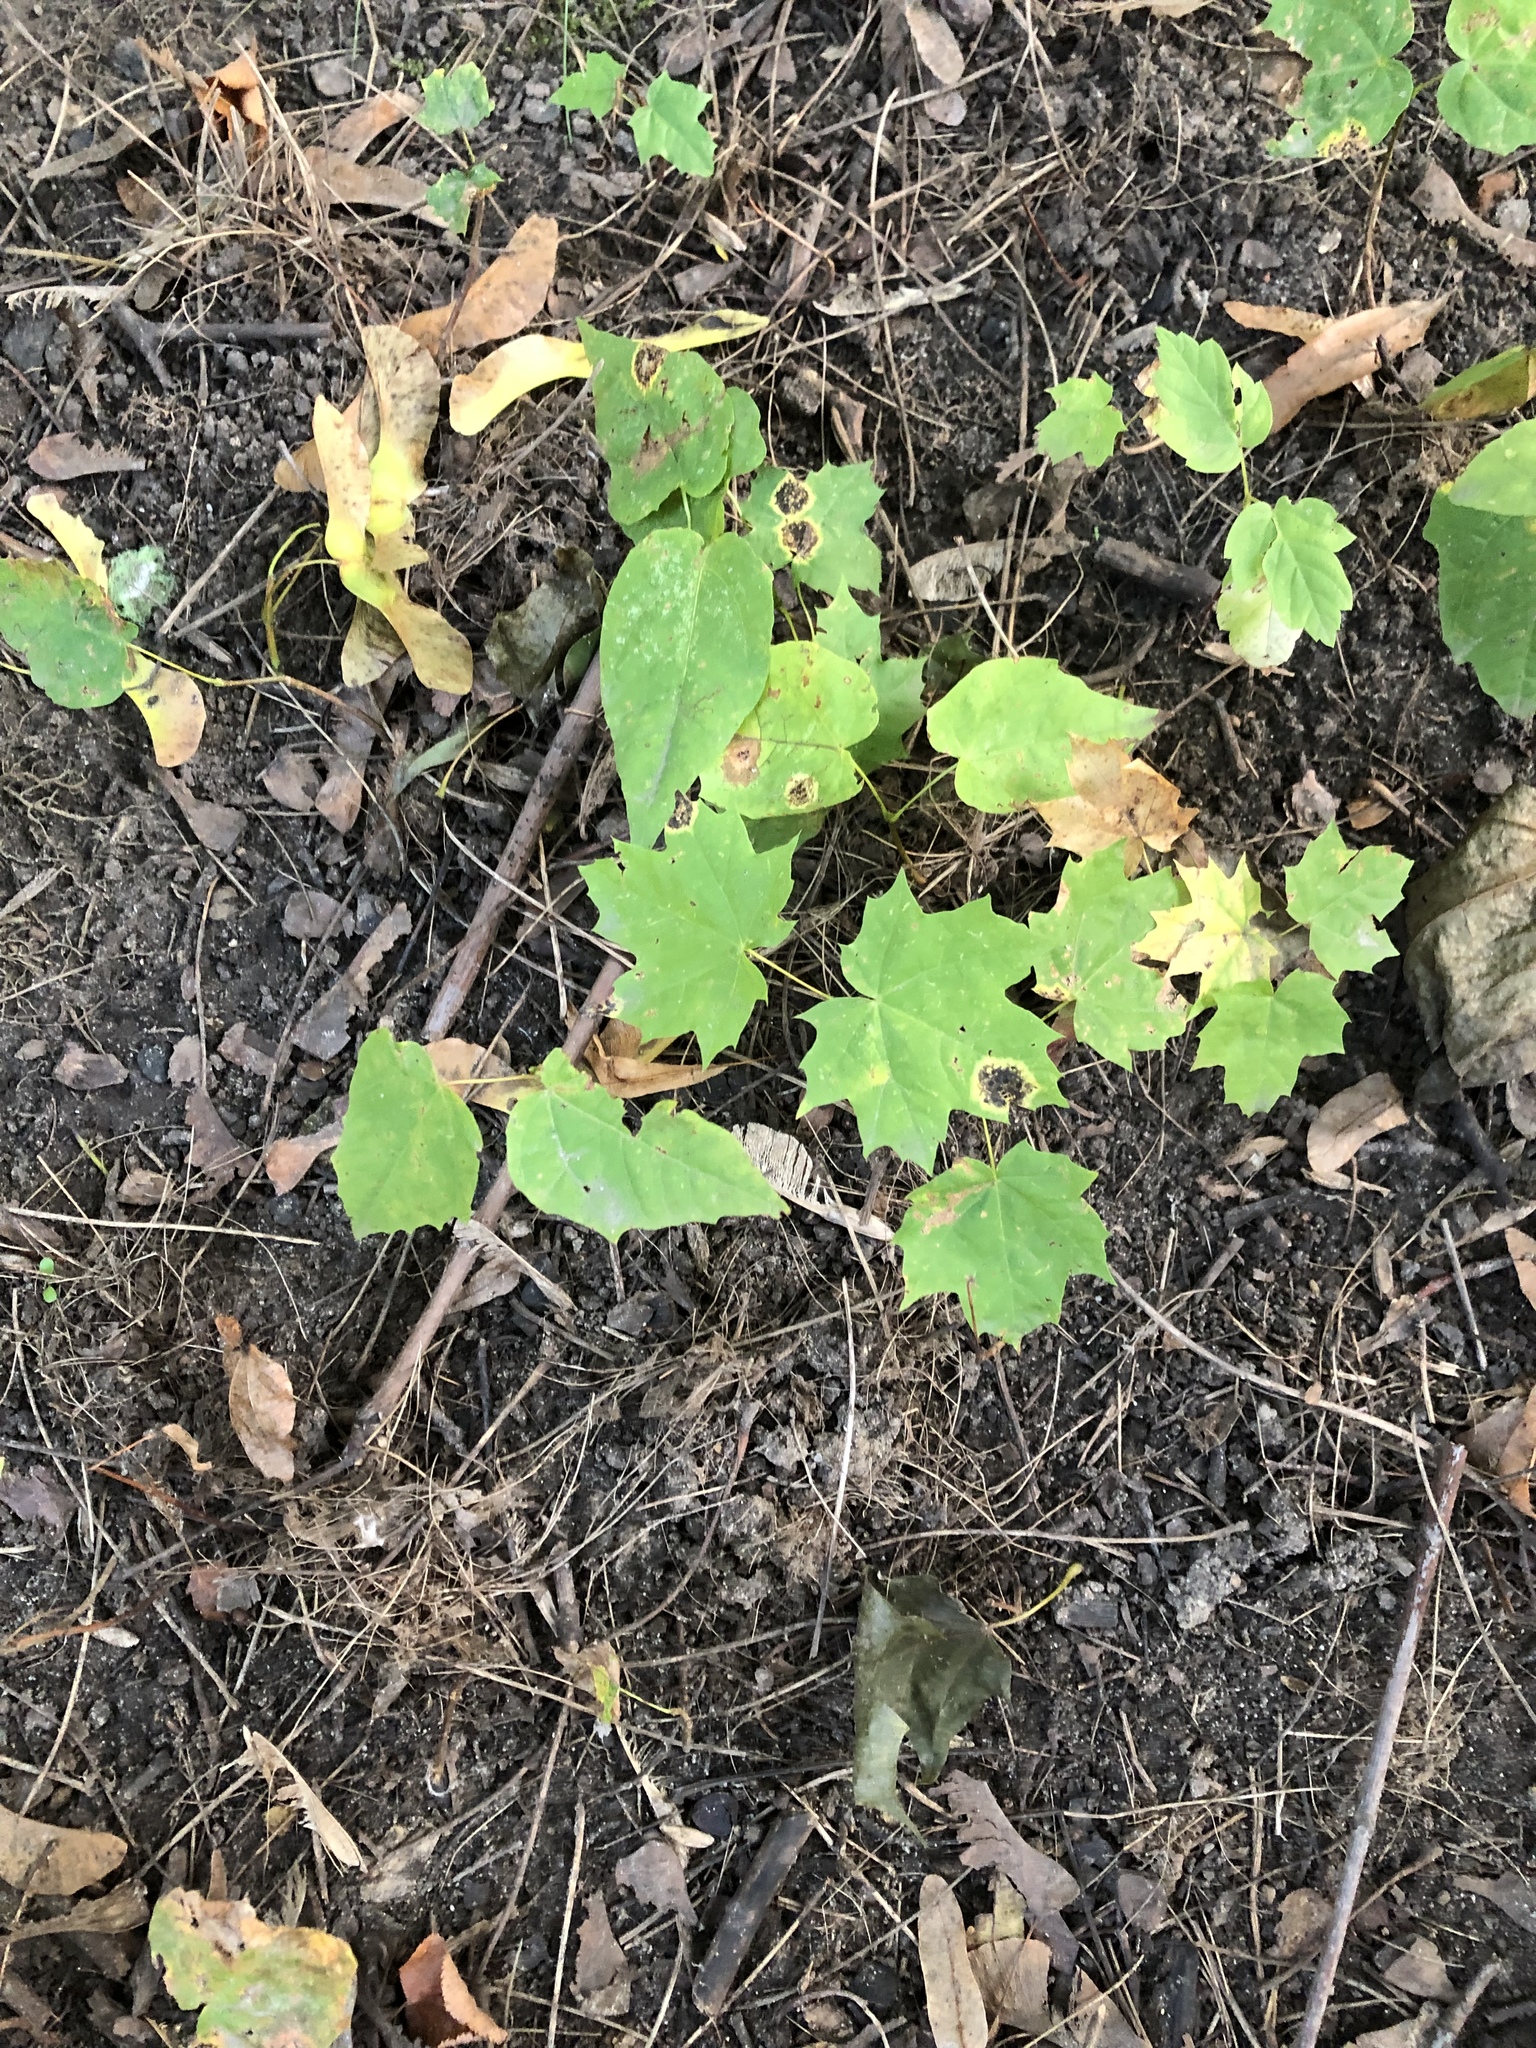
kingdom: Plantae
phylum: Tracheophyta
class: Magnoliopsida
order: Sapindales
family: Sapindaceae
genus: Acer
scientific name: Acer platanoides
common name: Norway maple
